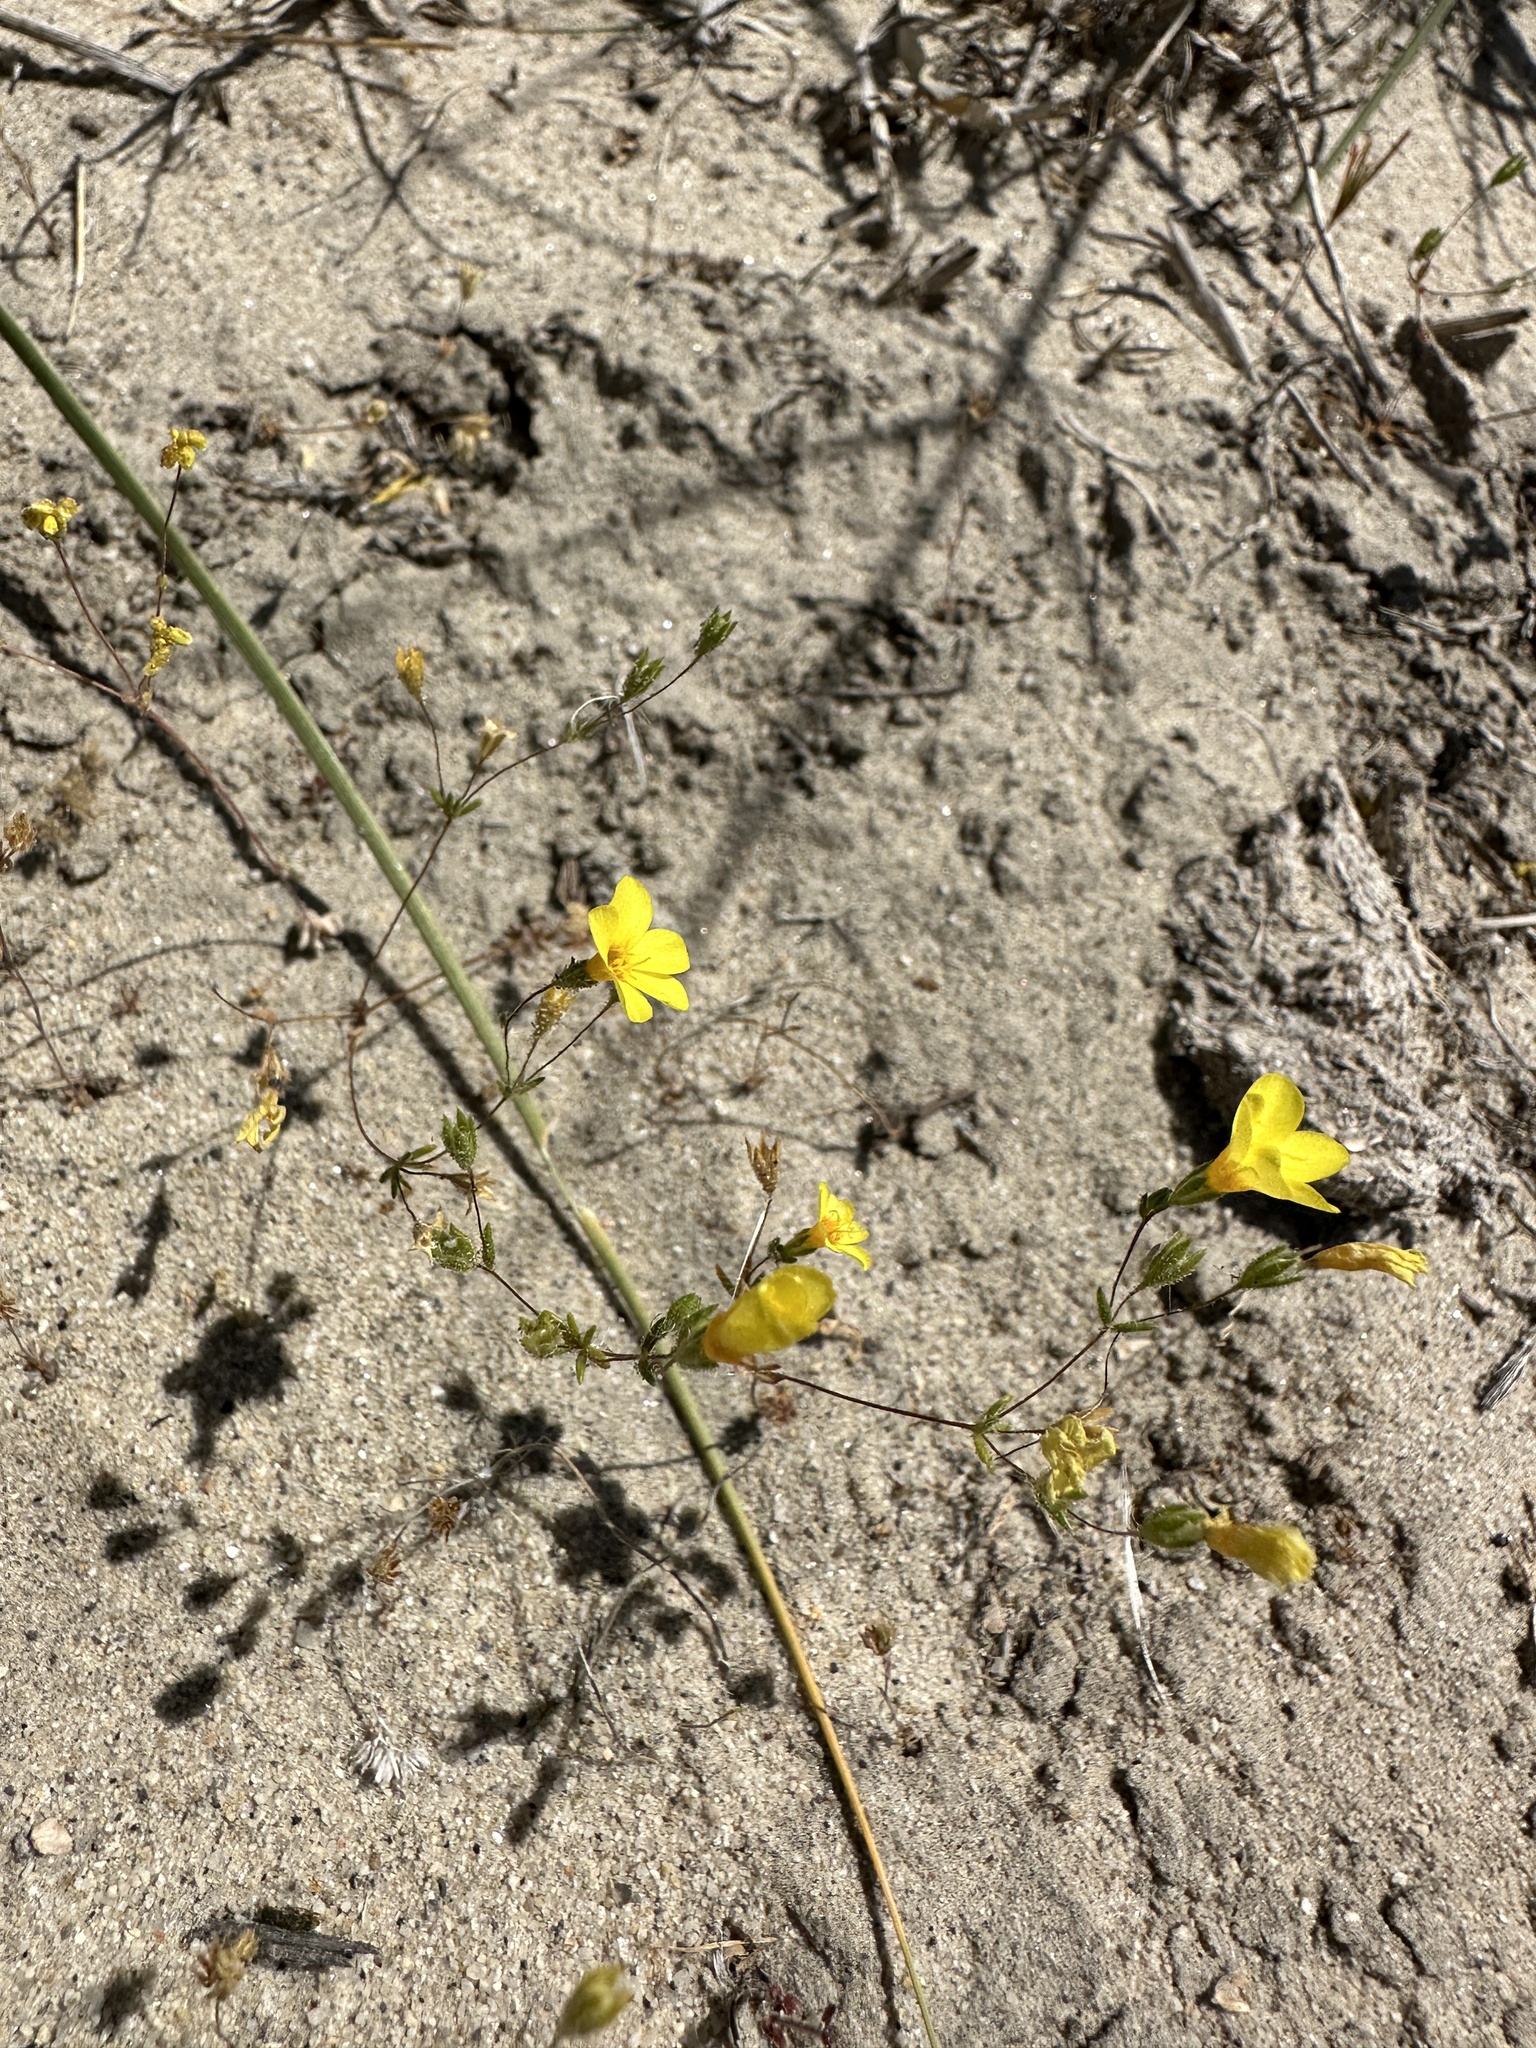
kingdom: Plantae
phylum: Tracheophyta
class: Magnoliopsida
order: Ericales
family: Polemoniaceae
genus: Leptosiphon
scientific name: Leptosiphon chrysanthus
